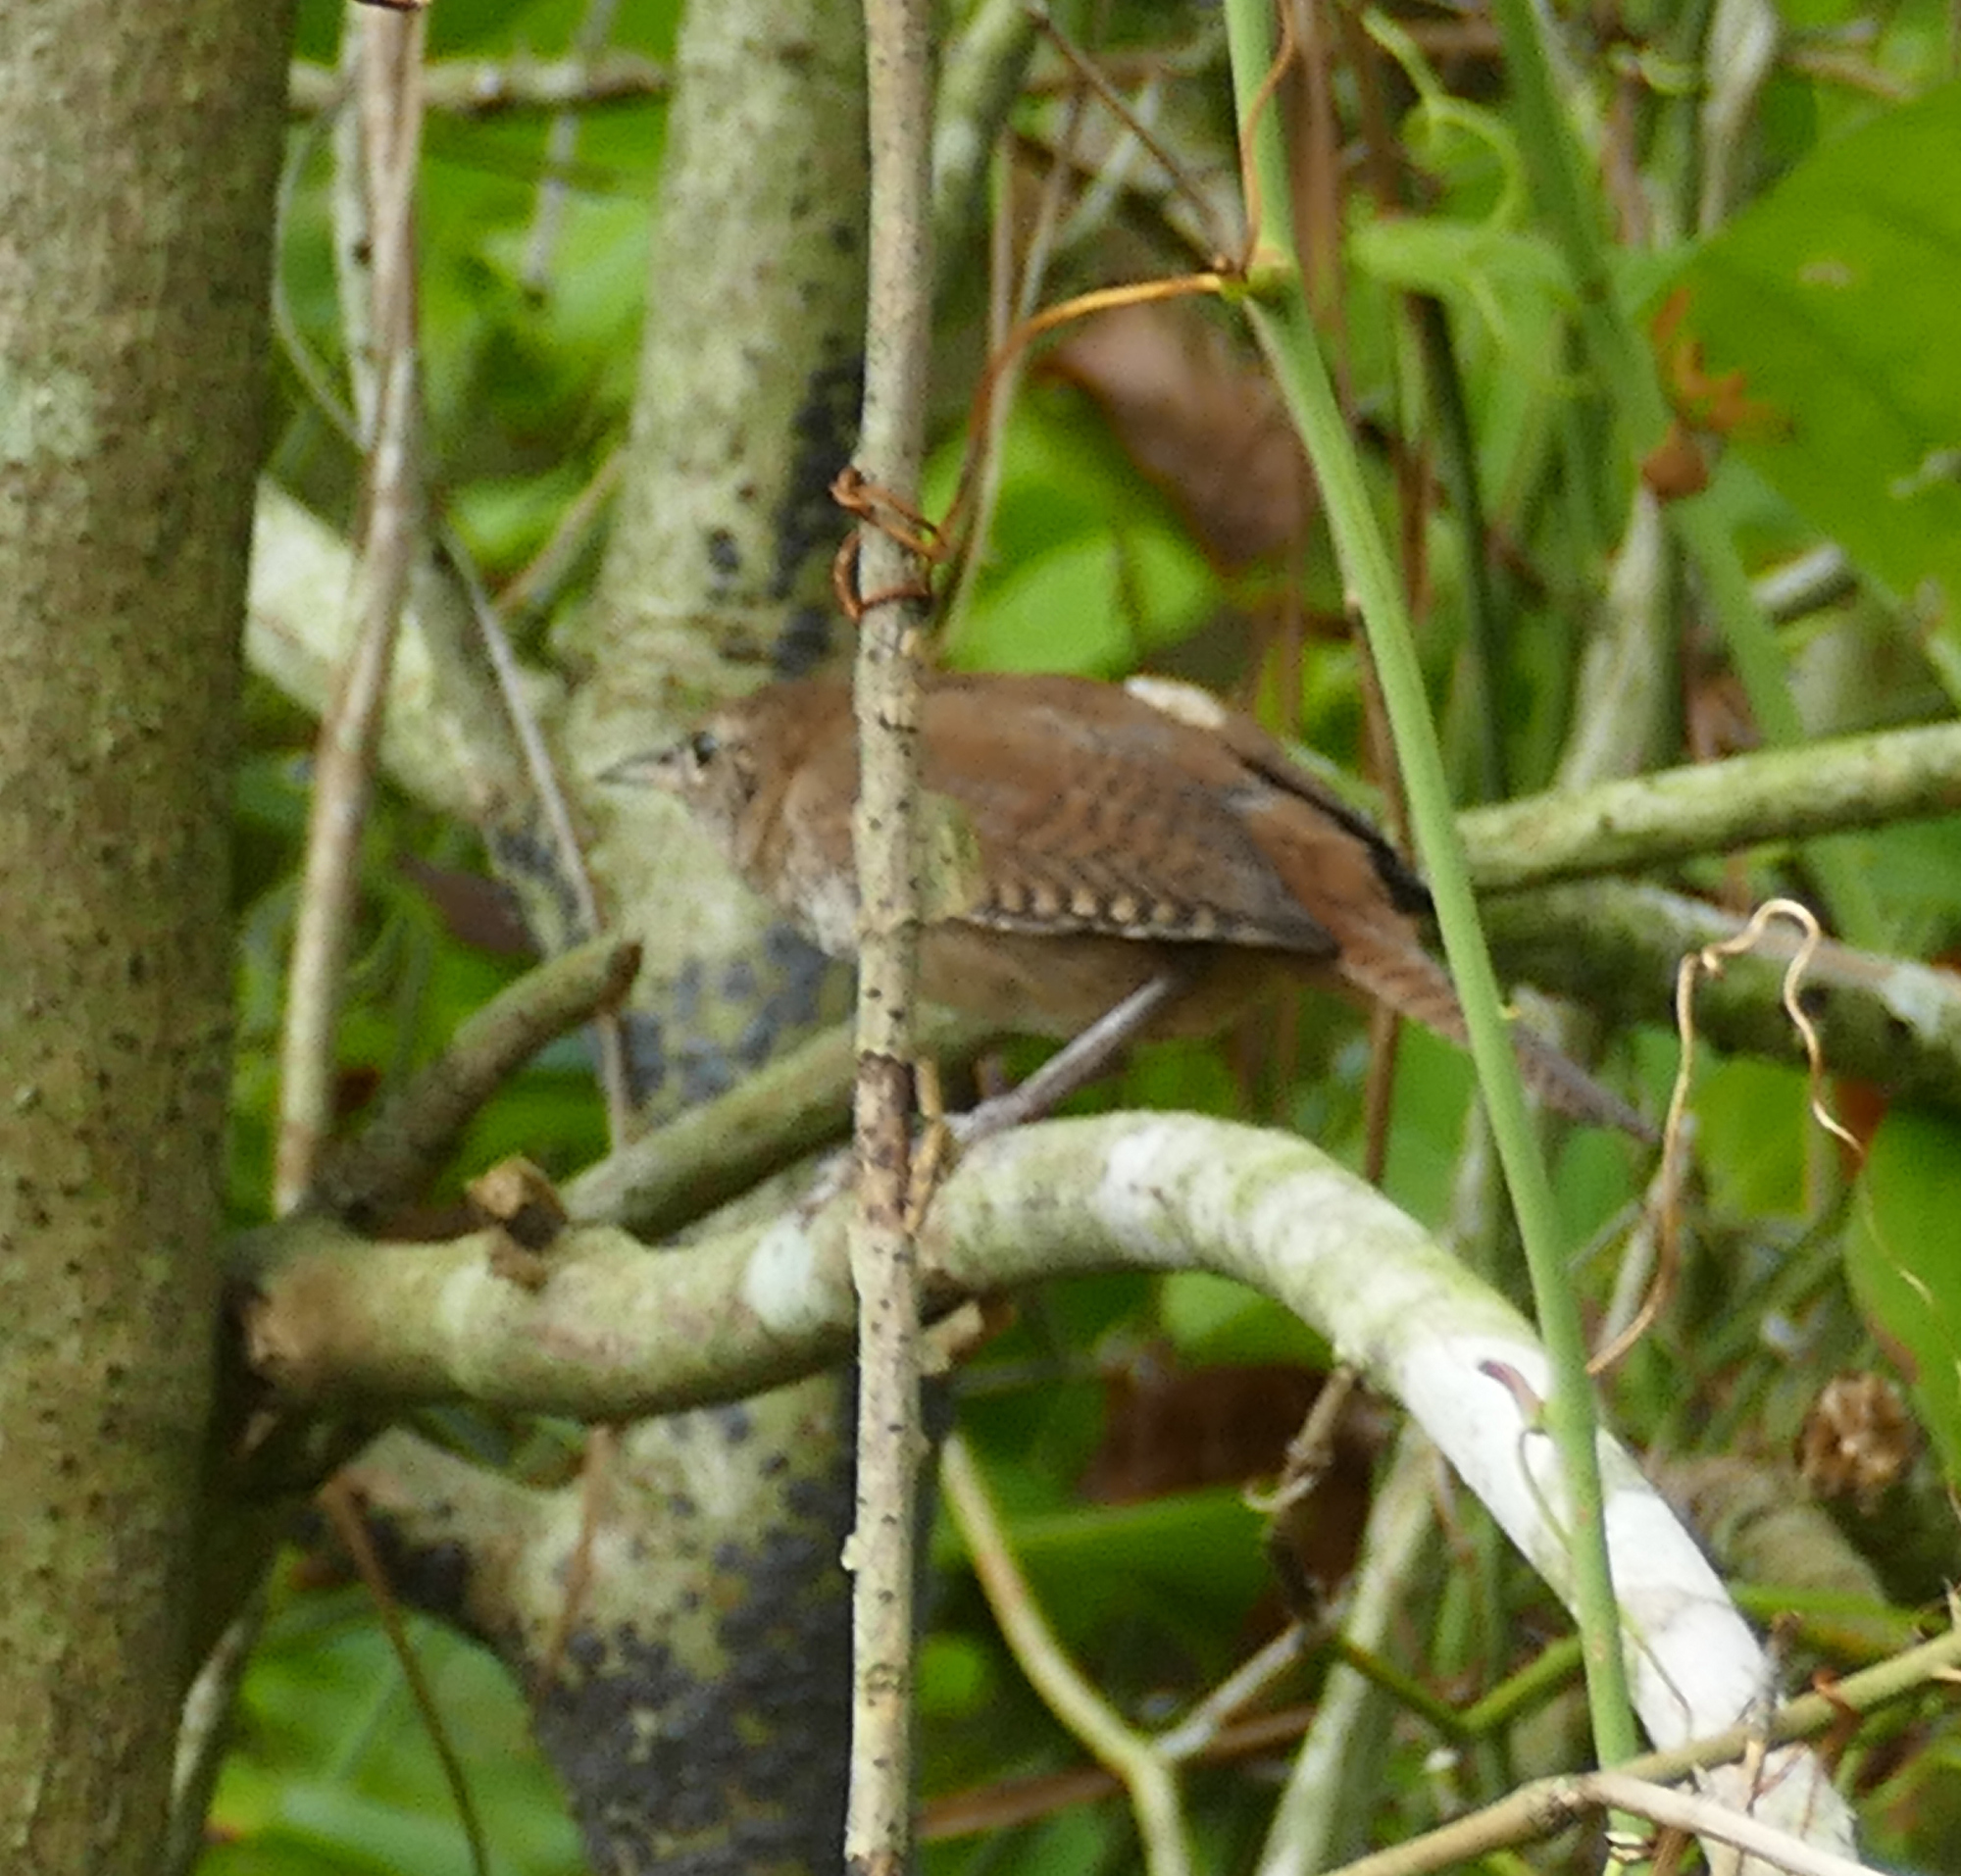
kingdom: Animalia
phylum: Chordata
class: Aves
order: Passeriformes
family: Troglodytidae
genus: Troglodytes
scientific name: Troglodytes aedon
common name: House wren
